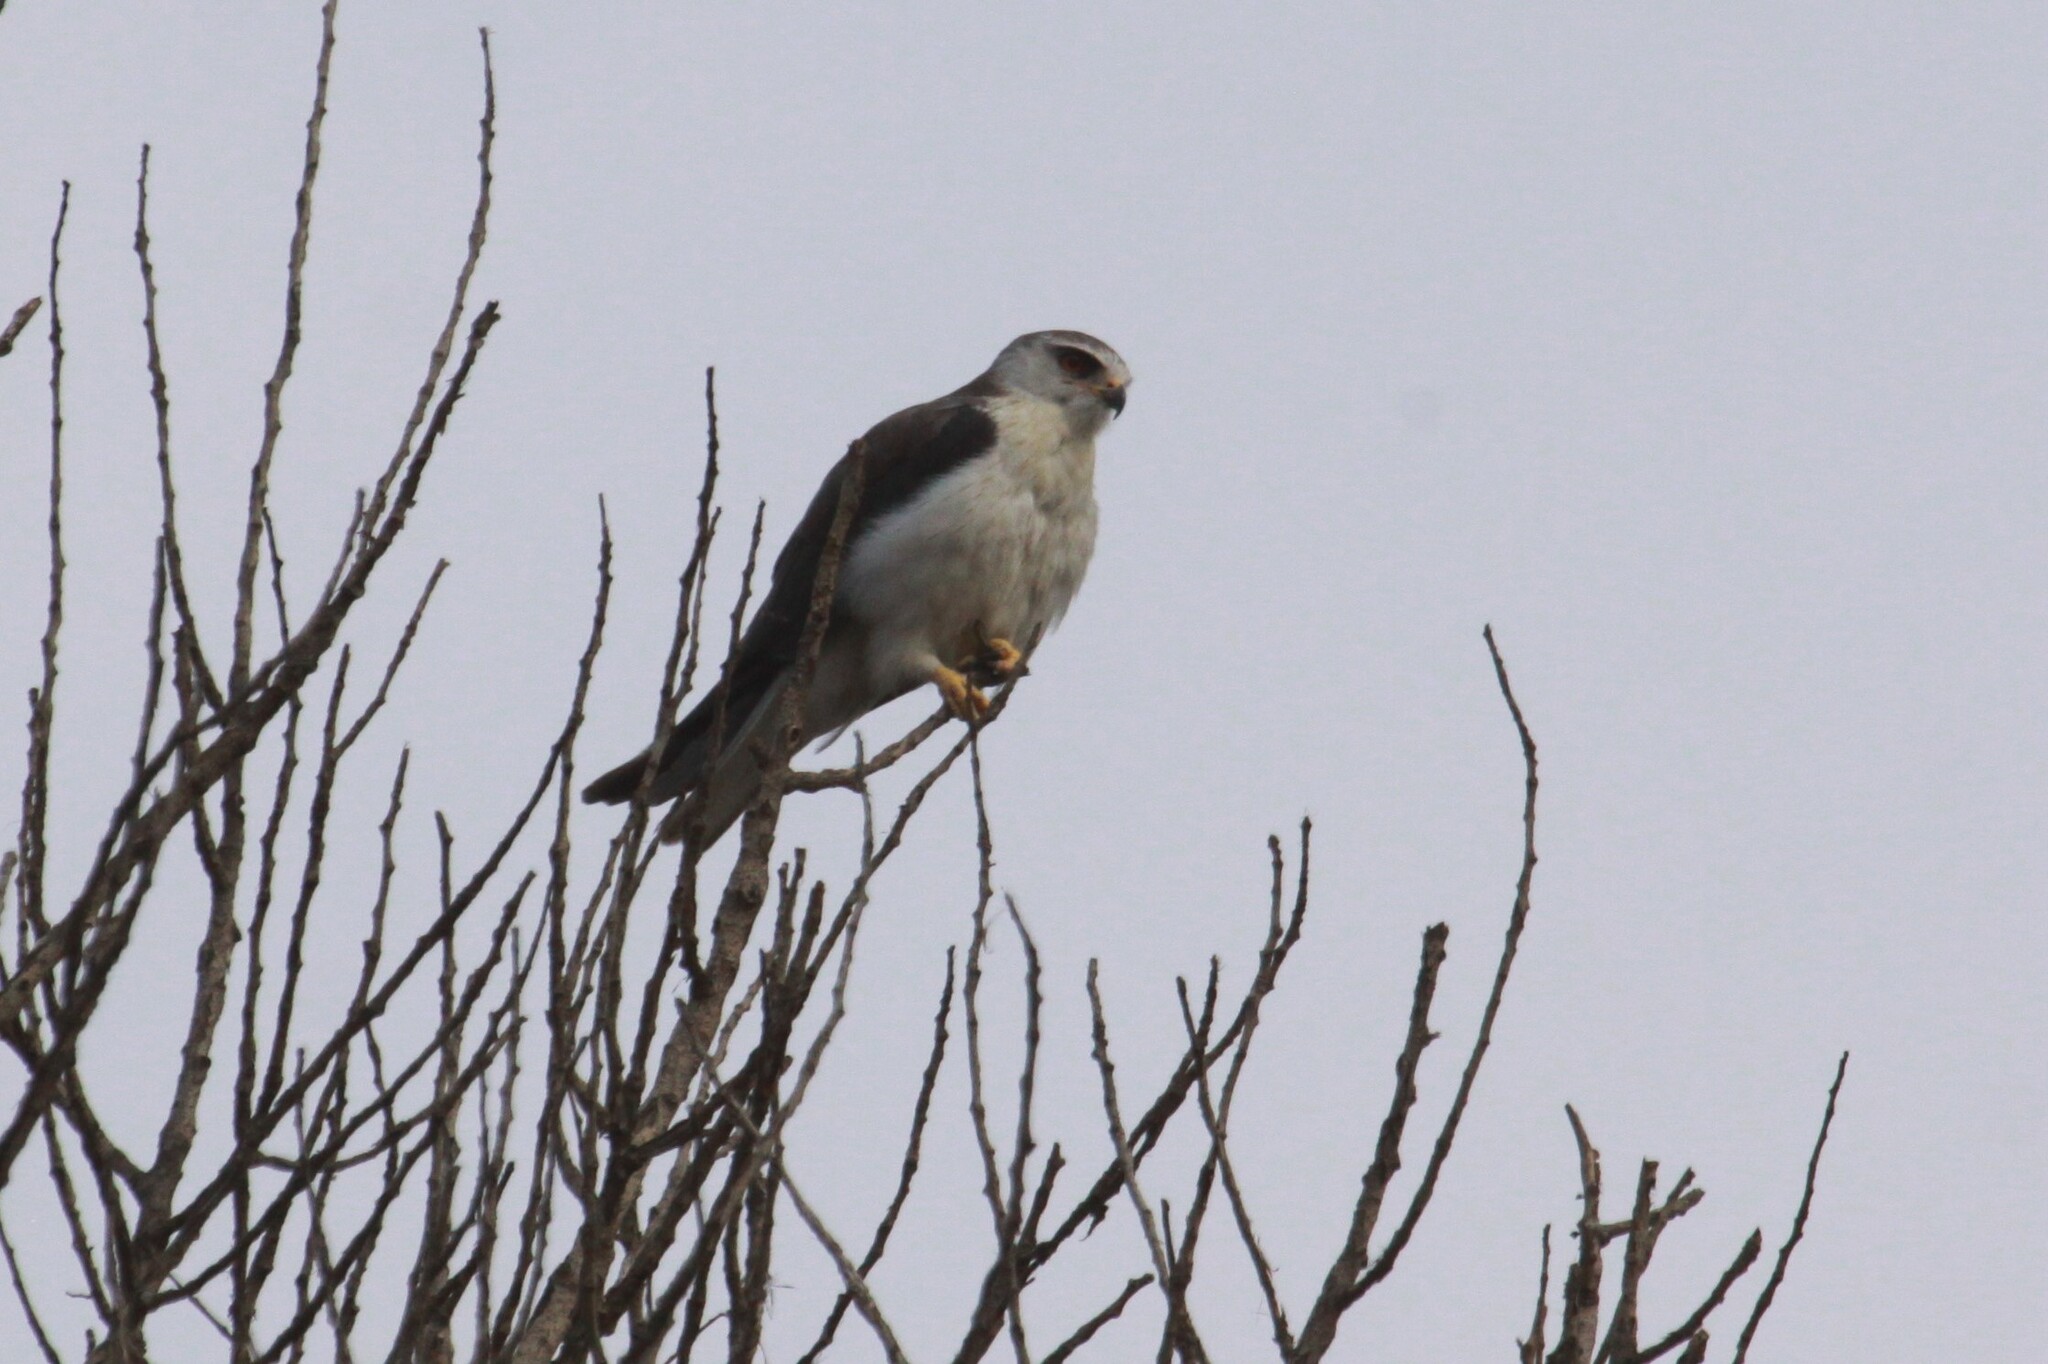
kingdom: Animalia
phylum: Chordata
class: Aves
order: Accipitriformes
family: Accipitridae
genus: Elanus
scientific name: Elanus caeruleus
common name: Black-winged kite
